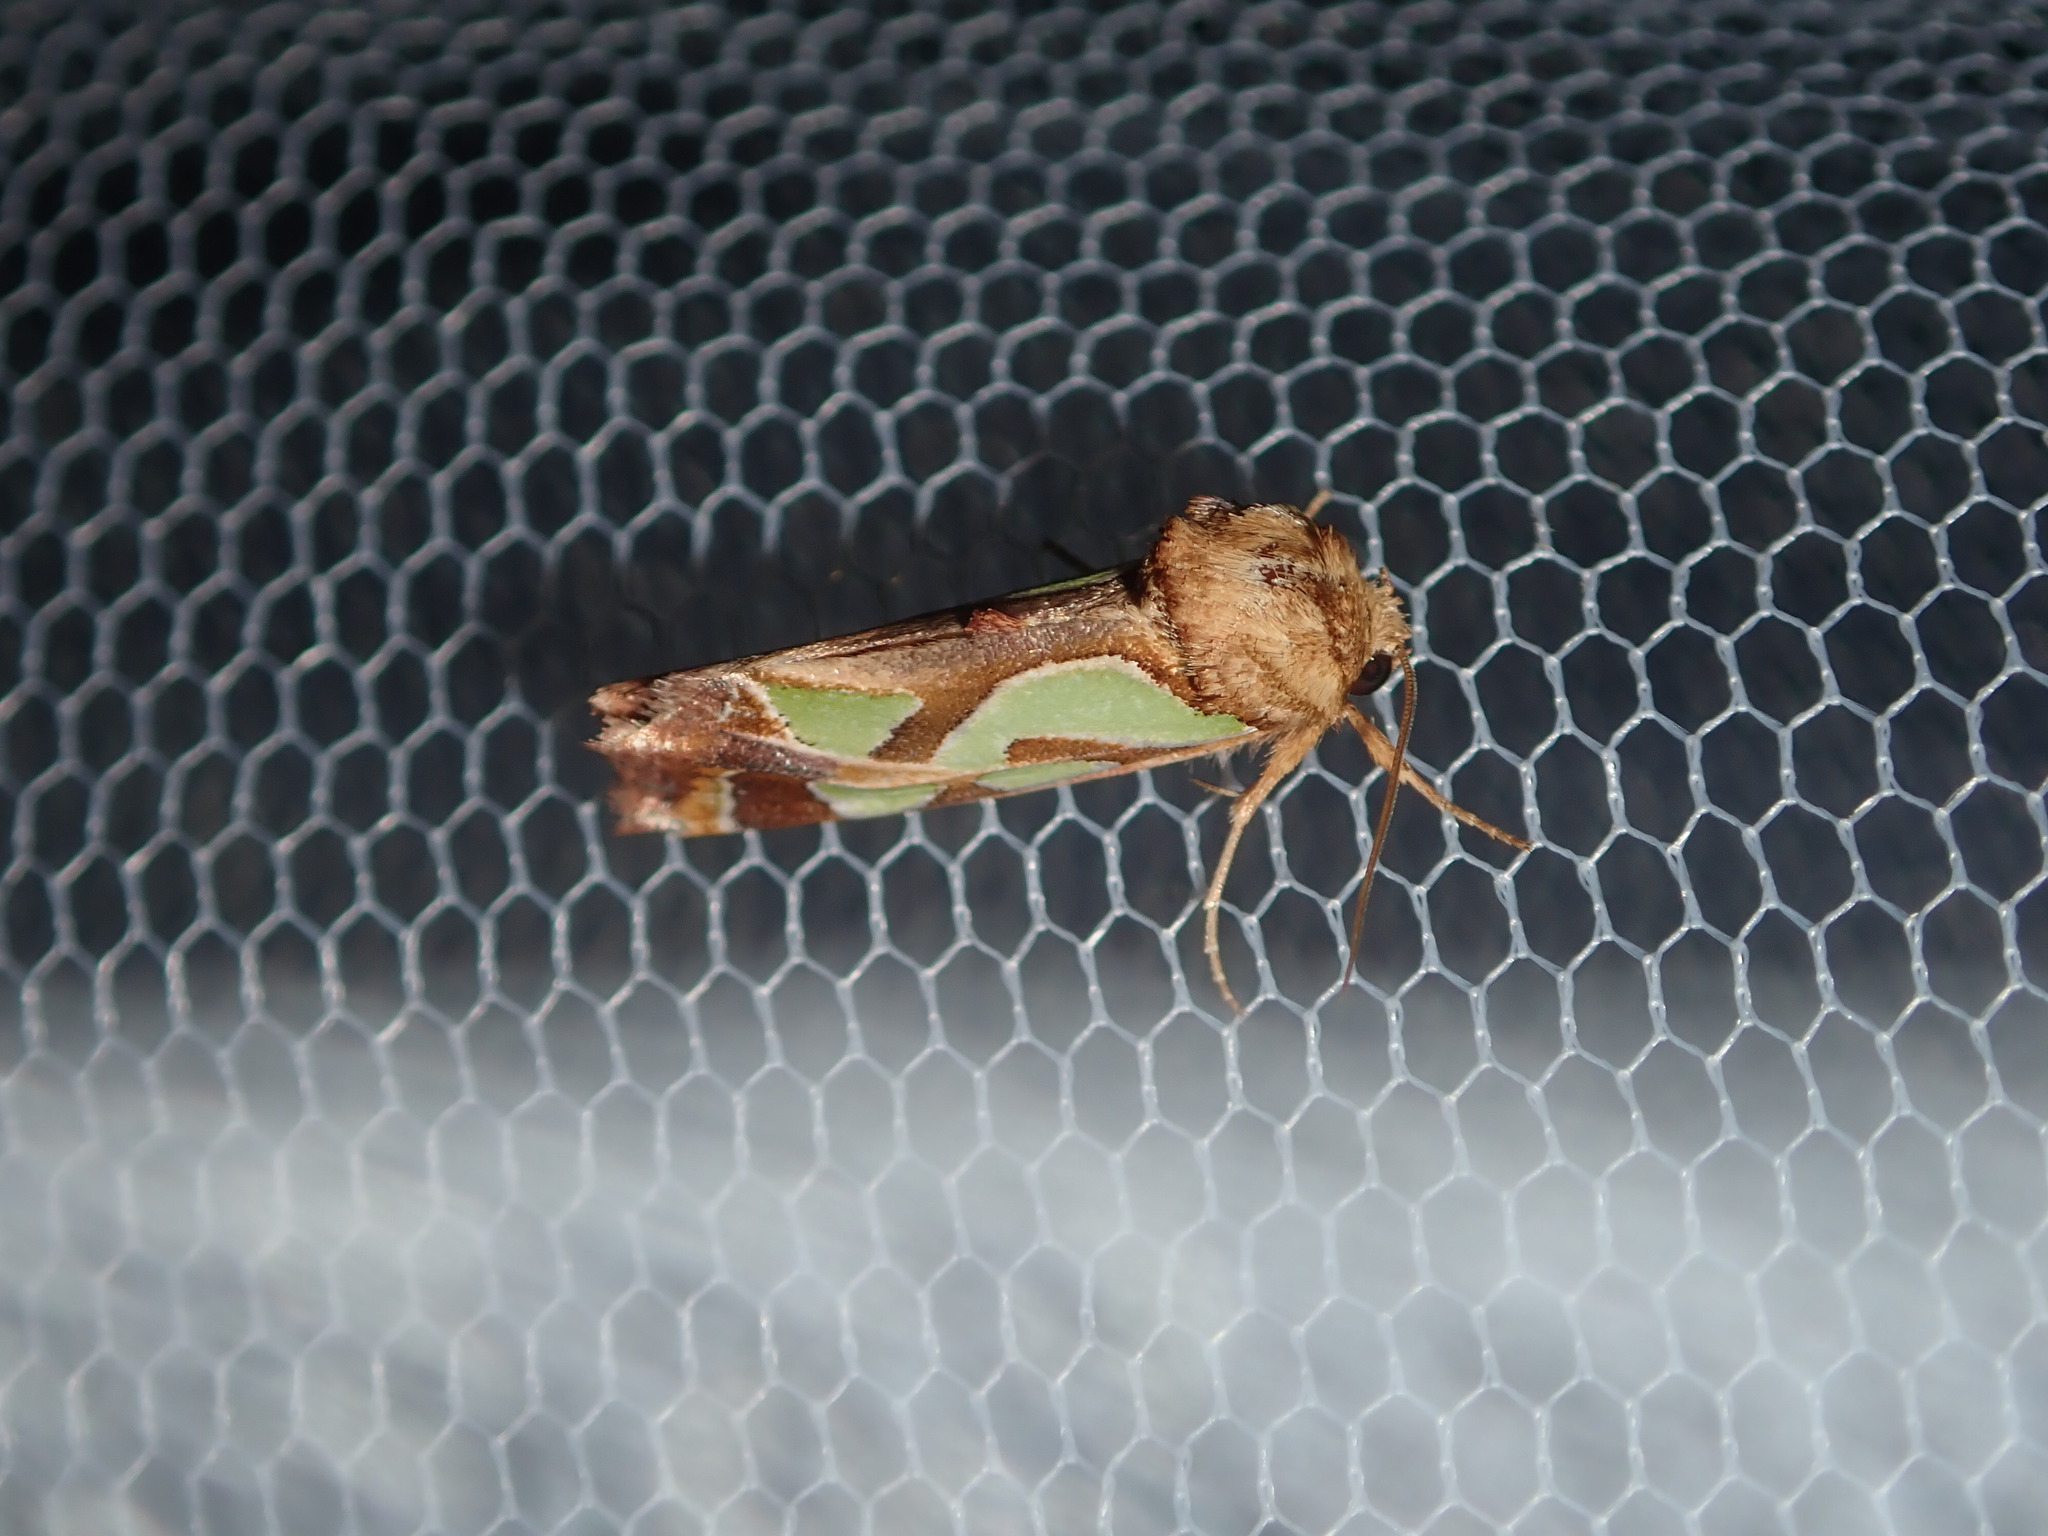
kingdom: Animalia
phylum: Arthropoda
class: Insecta
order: Lepidoptera
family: Noctuidae
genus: Cosmodes
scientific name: Cosmodes elegans
